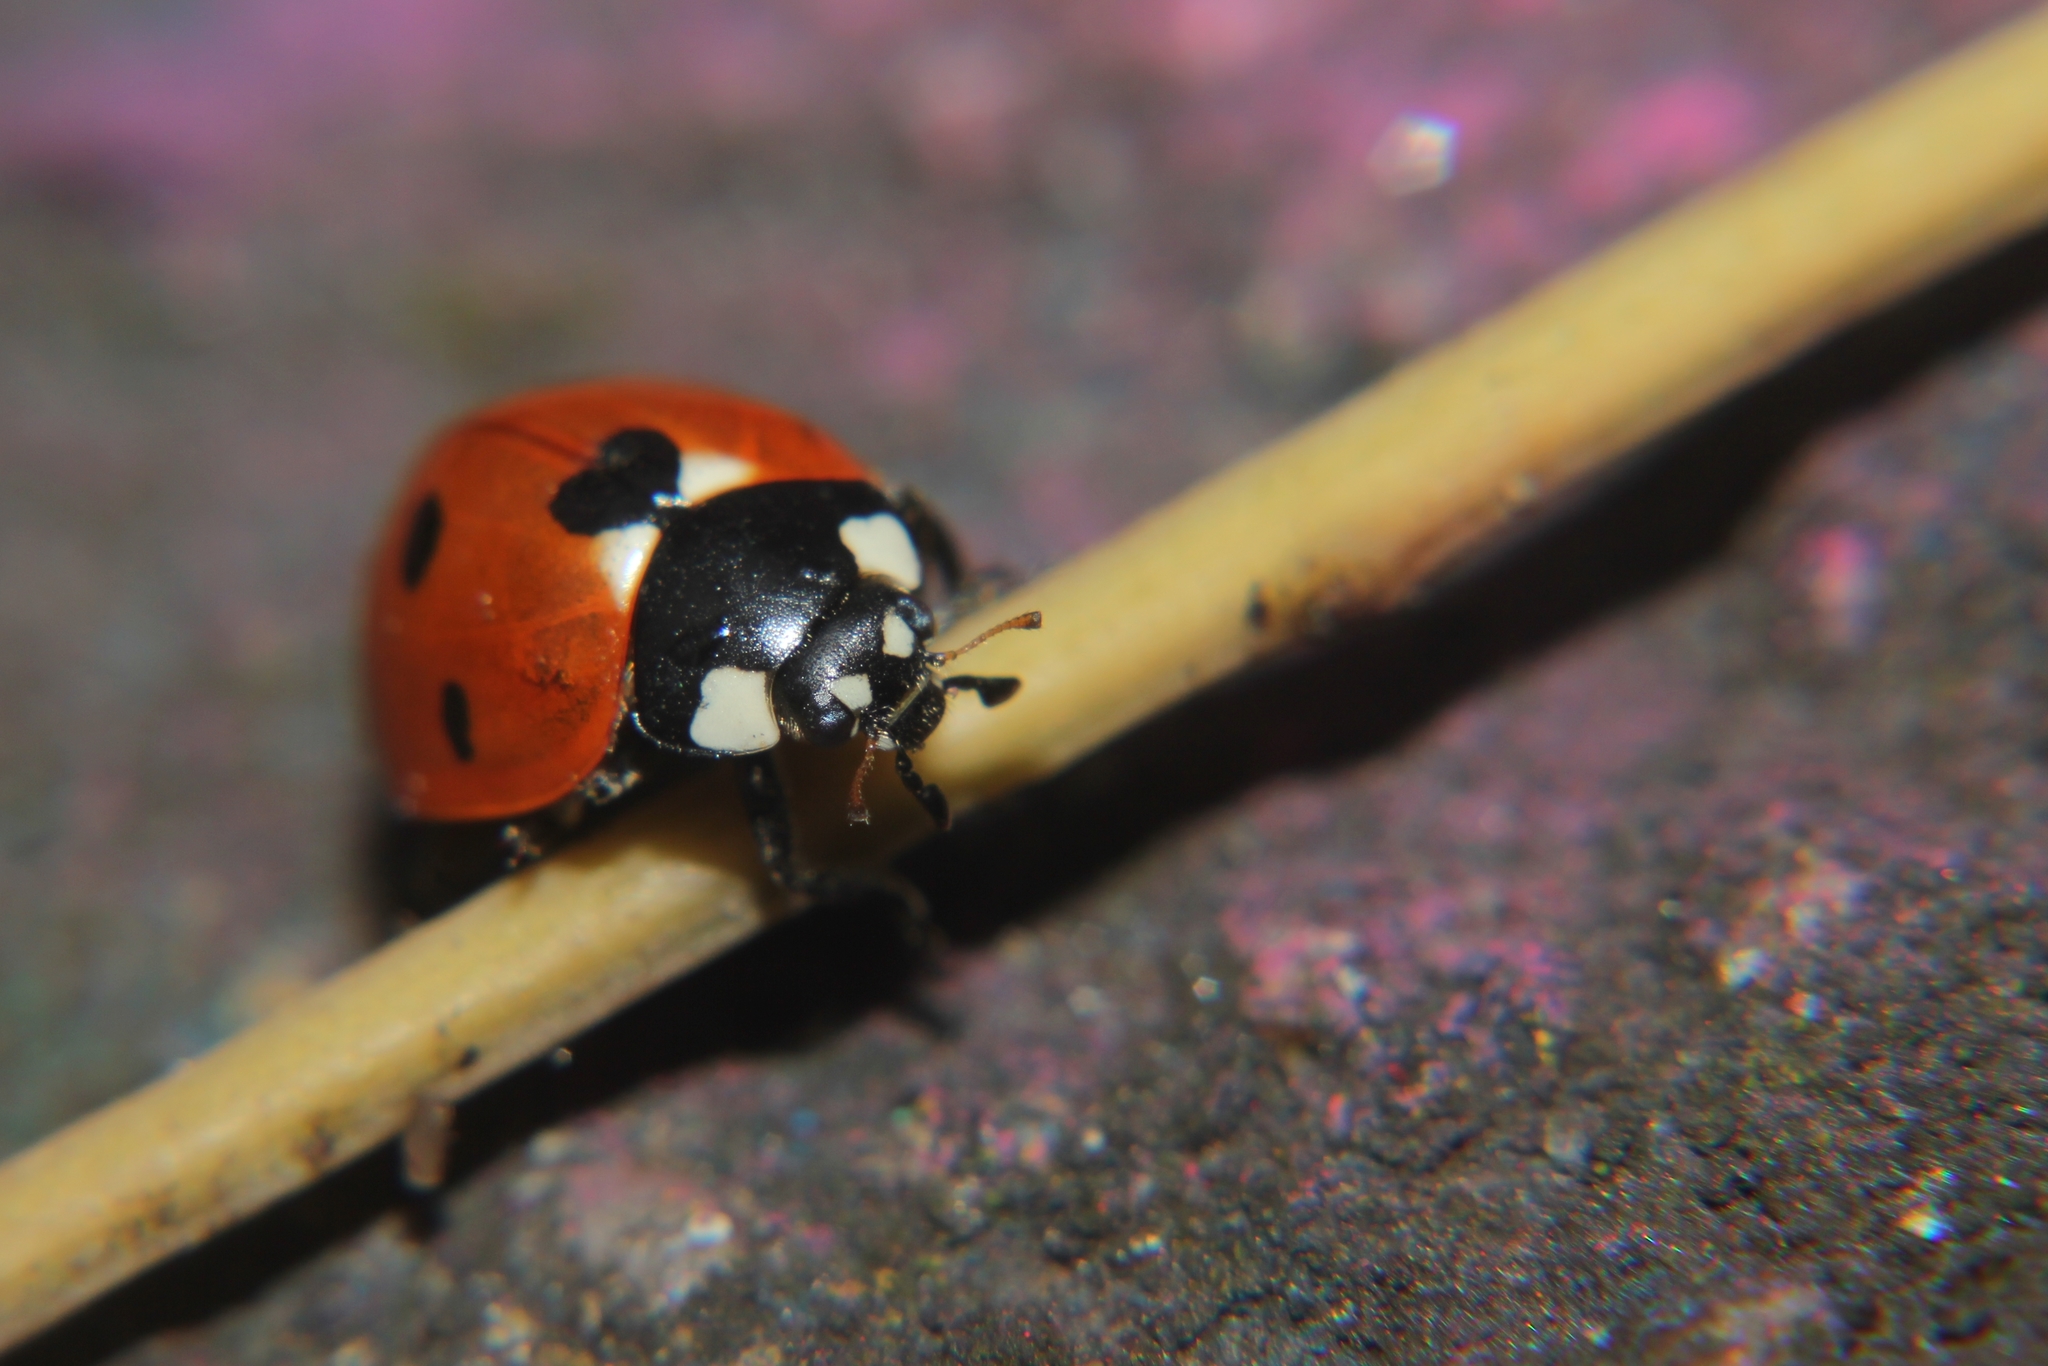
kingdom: Animalia
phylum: Arthropoda
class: Insecta
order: Coleoptera
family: Coccinellidae
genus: Coccinella
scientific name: Coccinella septempunctata
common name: Sevenspotted lady beetle
